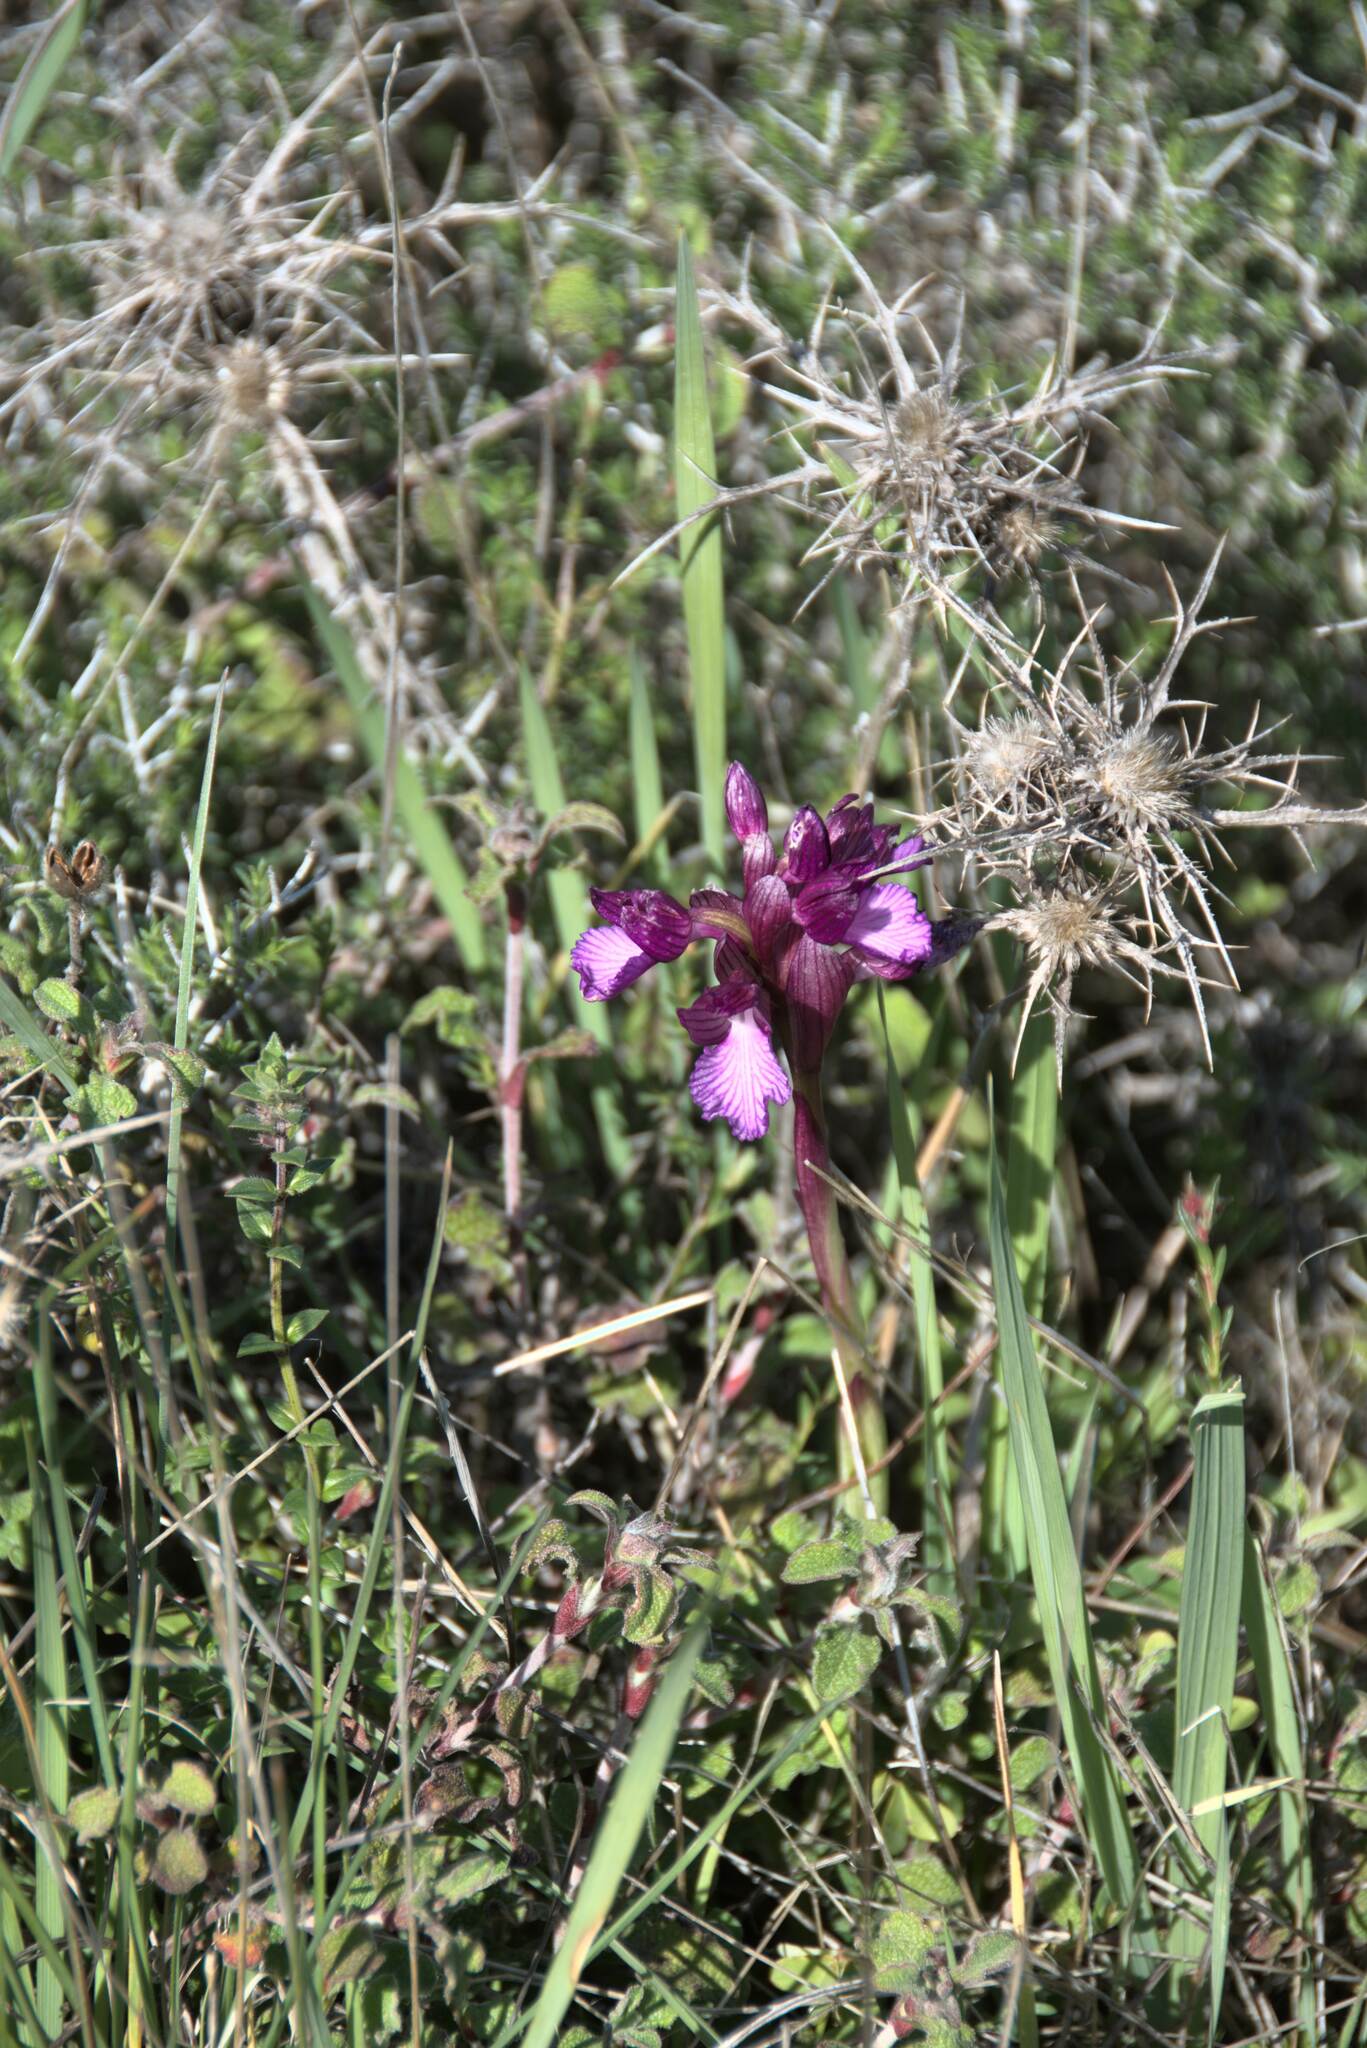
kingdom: Plantae
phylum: Tracheophyta
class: Liliopsida
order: Asparagales
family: Orchidaceae
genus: Anacamptis
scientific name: Anacamptis papilionacea
